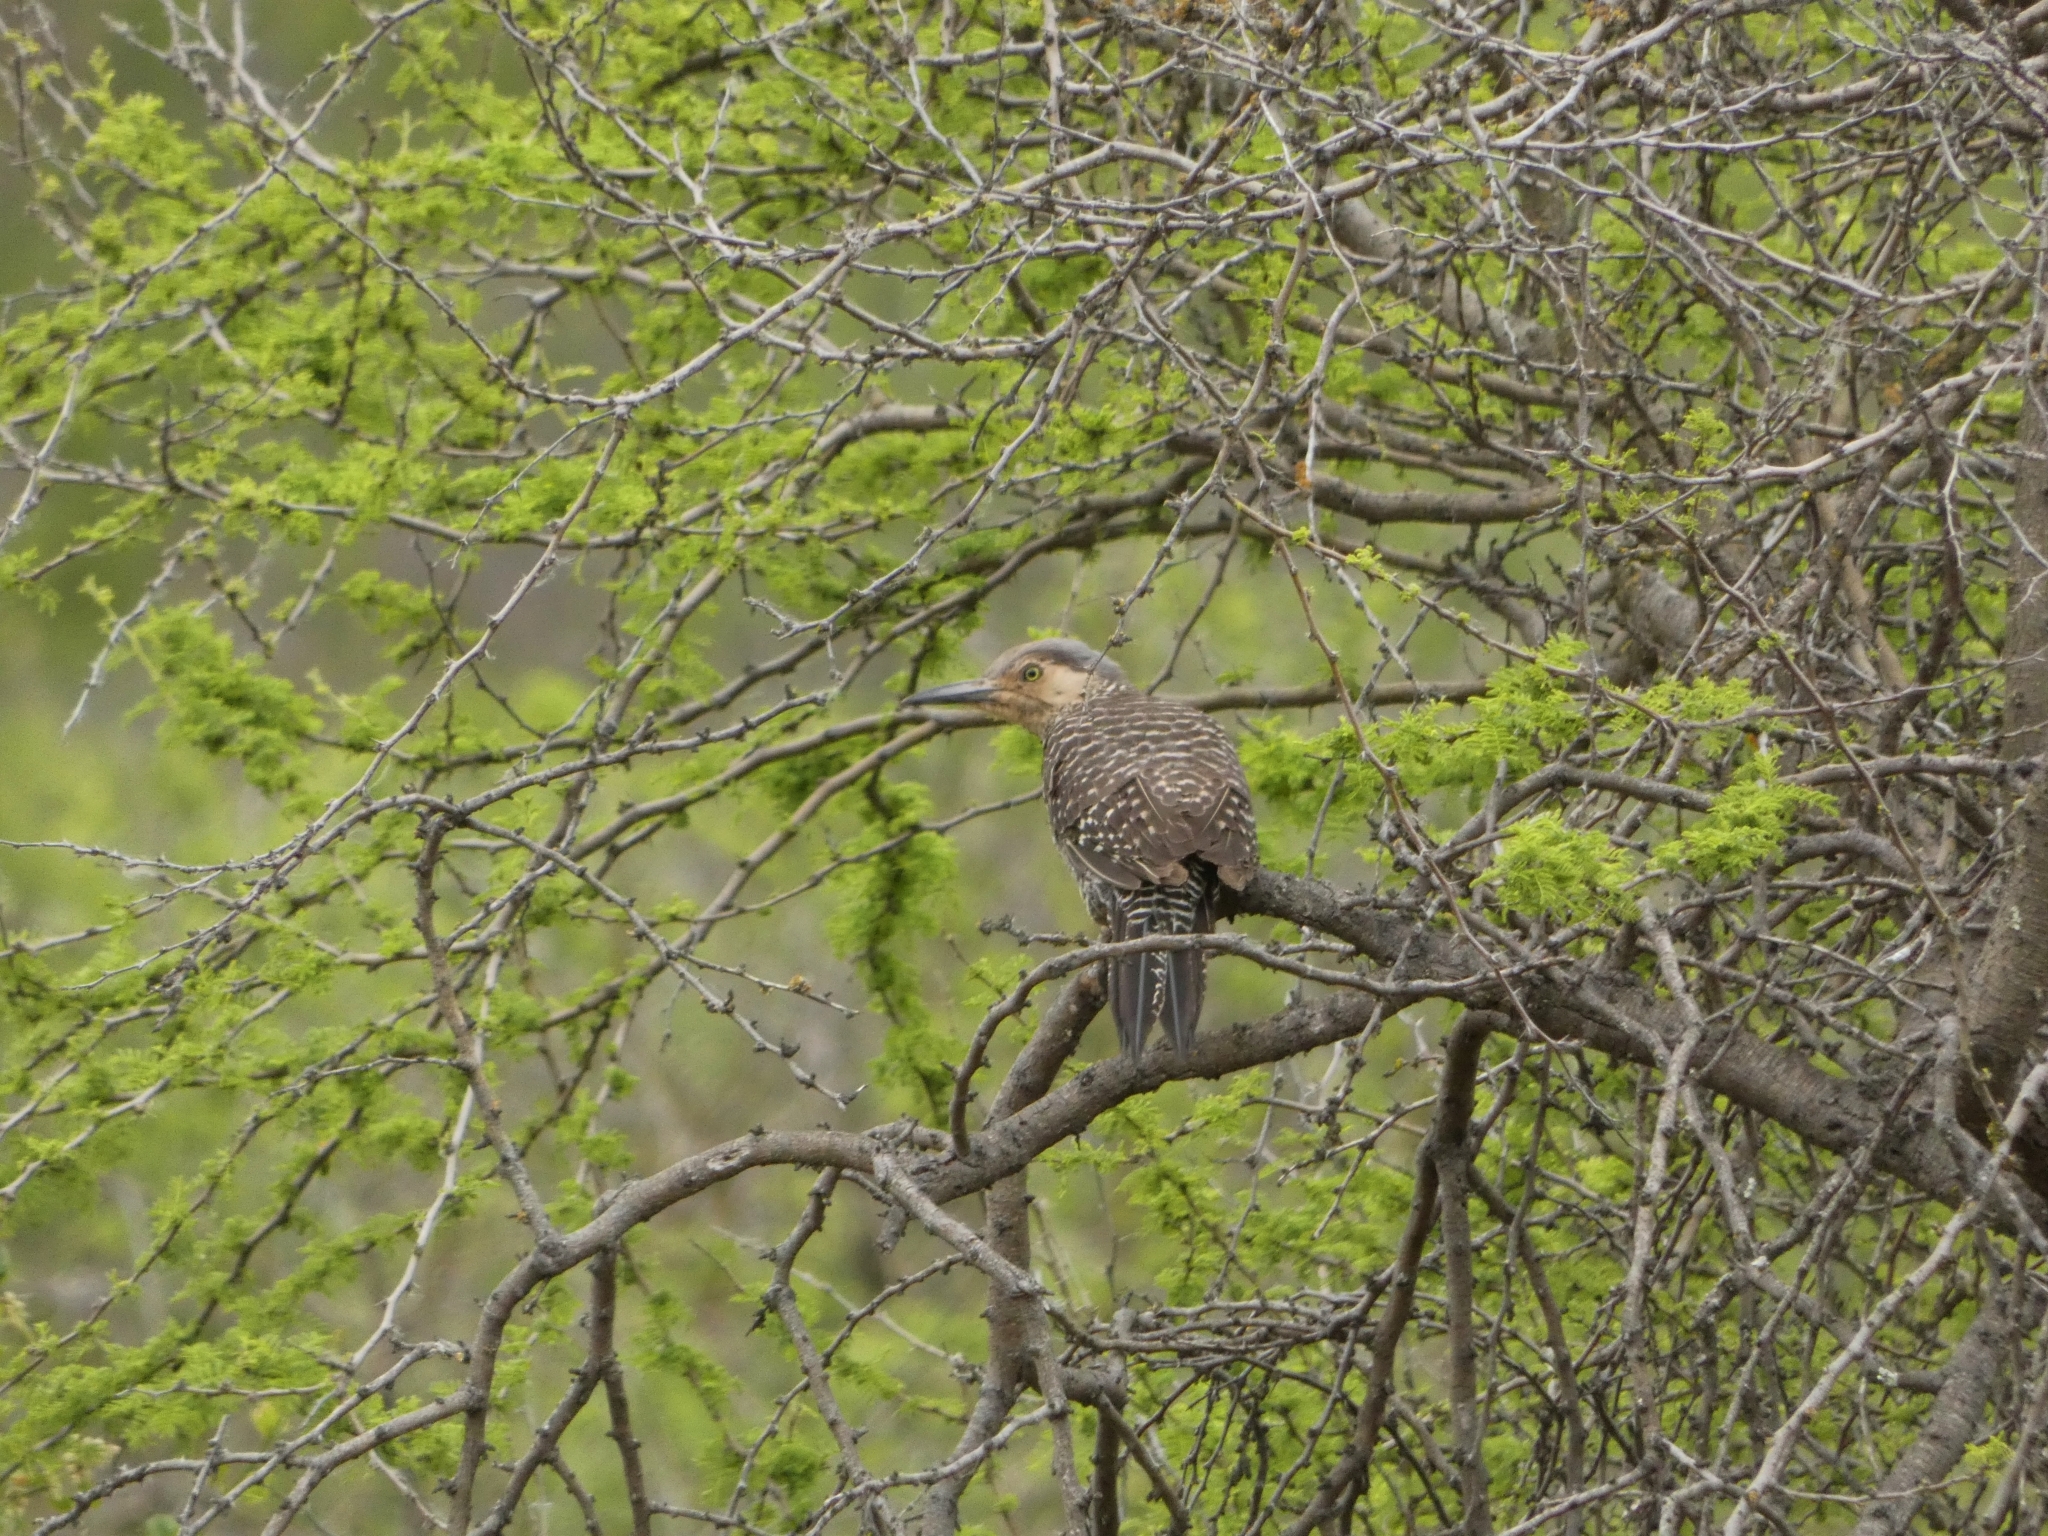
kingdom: Animalia
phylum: Chordata
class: Aves
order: Piciformes
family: Picidae
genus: Colaptes
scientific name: Colaptes pitius
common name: Chilean flicker
